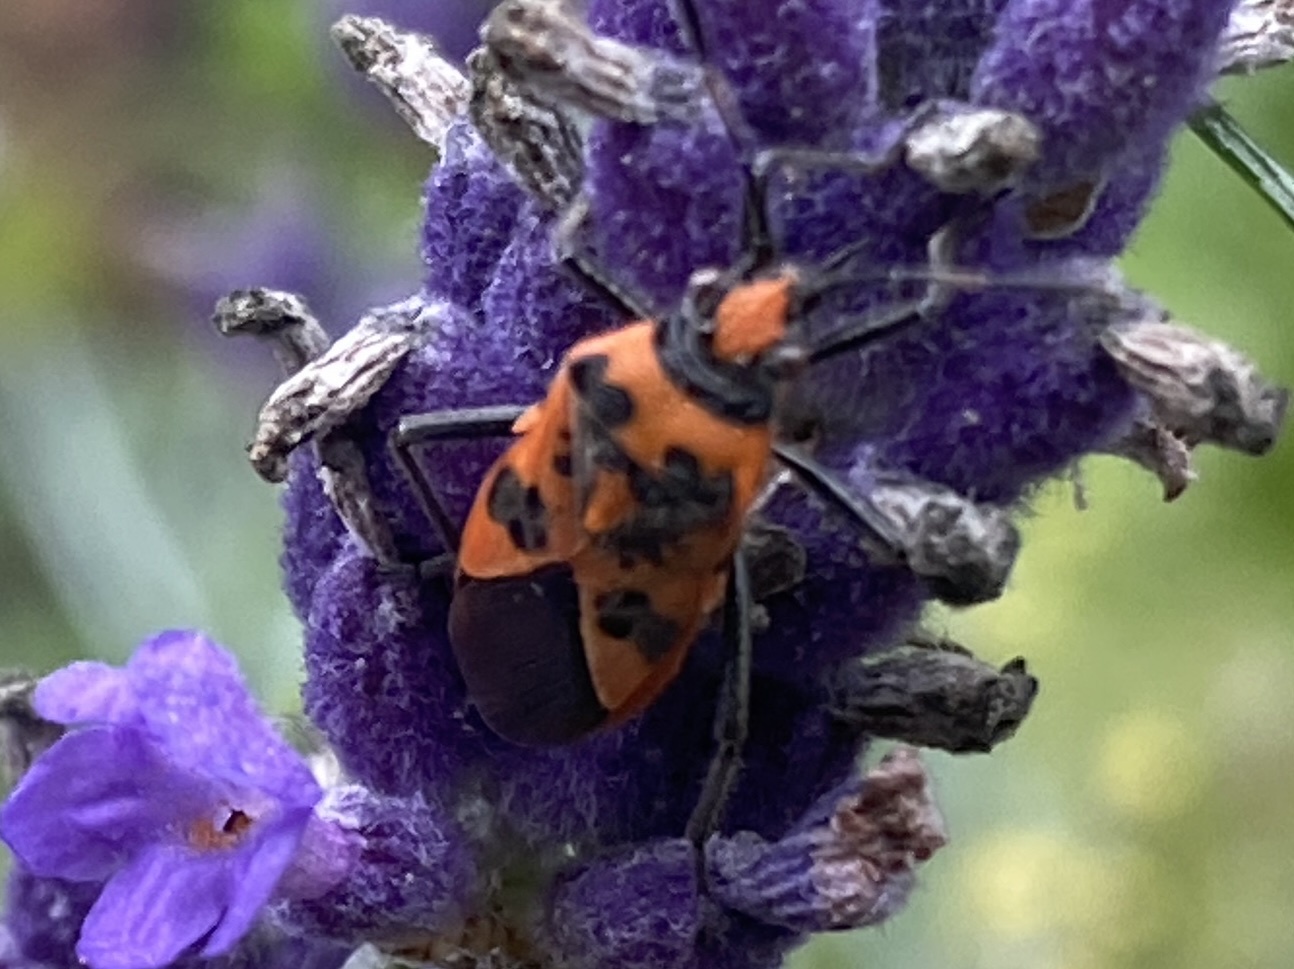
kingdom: Animalia
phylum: Arthropoda
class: Insecta
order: Hemiptera
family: Rhopalidae
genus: Corizus
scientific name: Corizus hyoscyami
